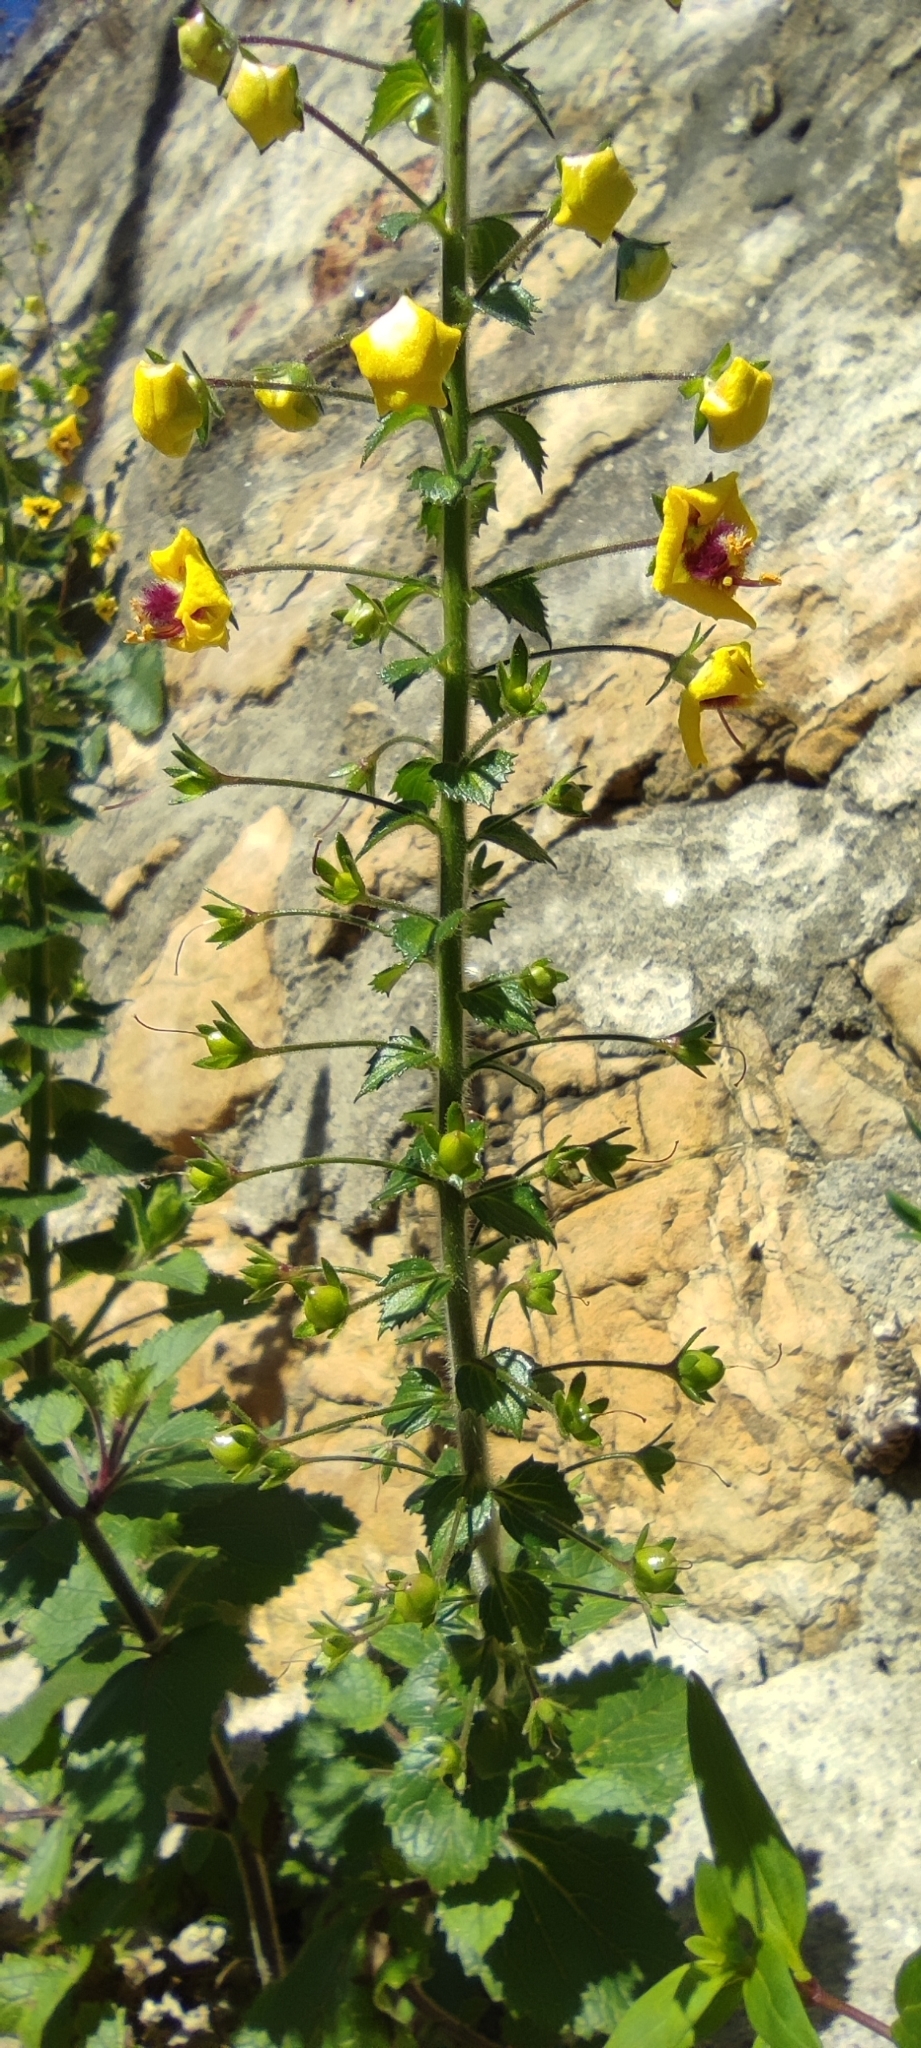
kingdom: Plantae
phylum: Tracheophyta
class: Magnoliopsida
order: Lamiales
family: Scrophulariaceae
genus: Verbascum
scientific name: Verbascum levanticum
